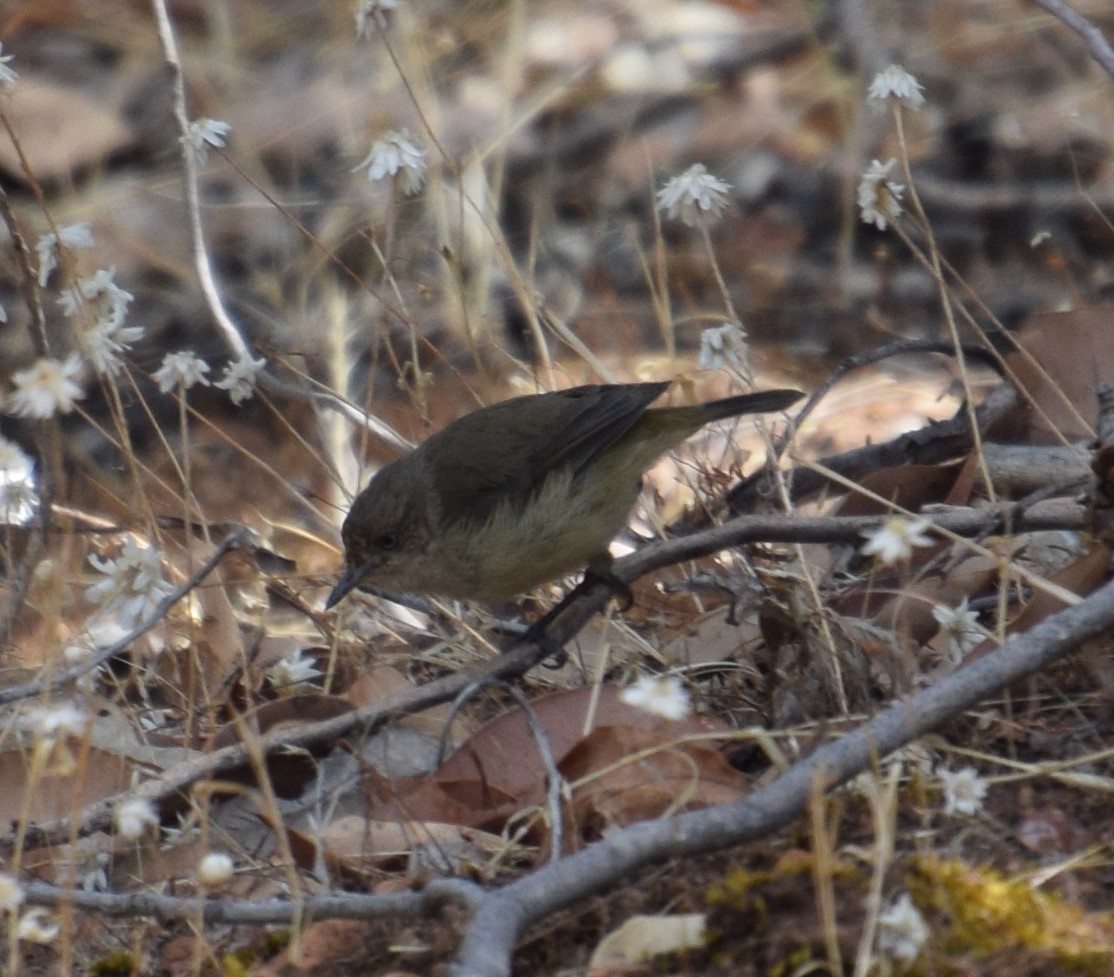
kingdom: Animalia
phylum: Chordata
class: Aves
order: Passeriformes
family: Acanthizidae
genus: Acanthiza
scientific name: Acanthiza inornata
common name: Western thornbill
